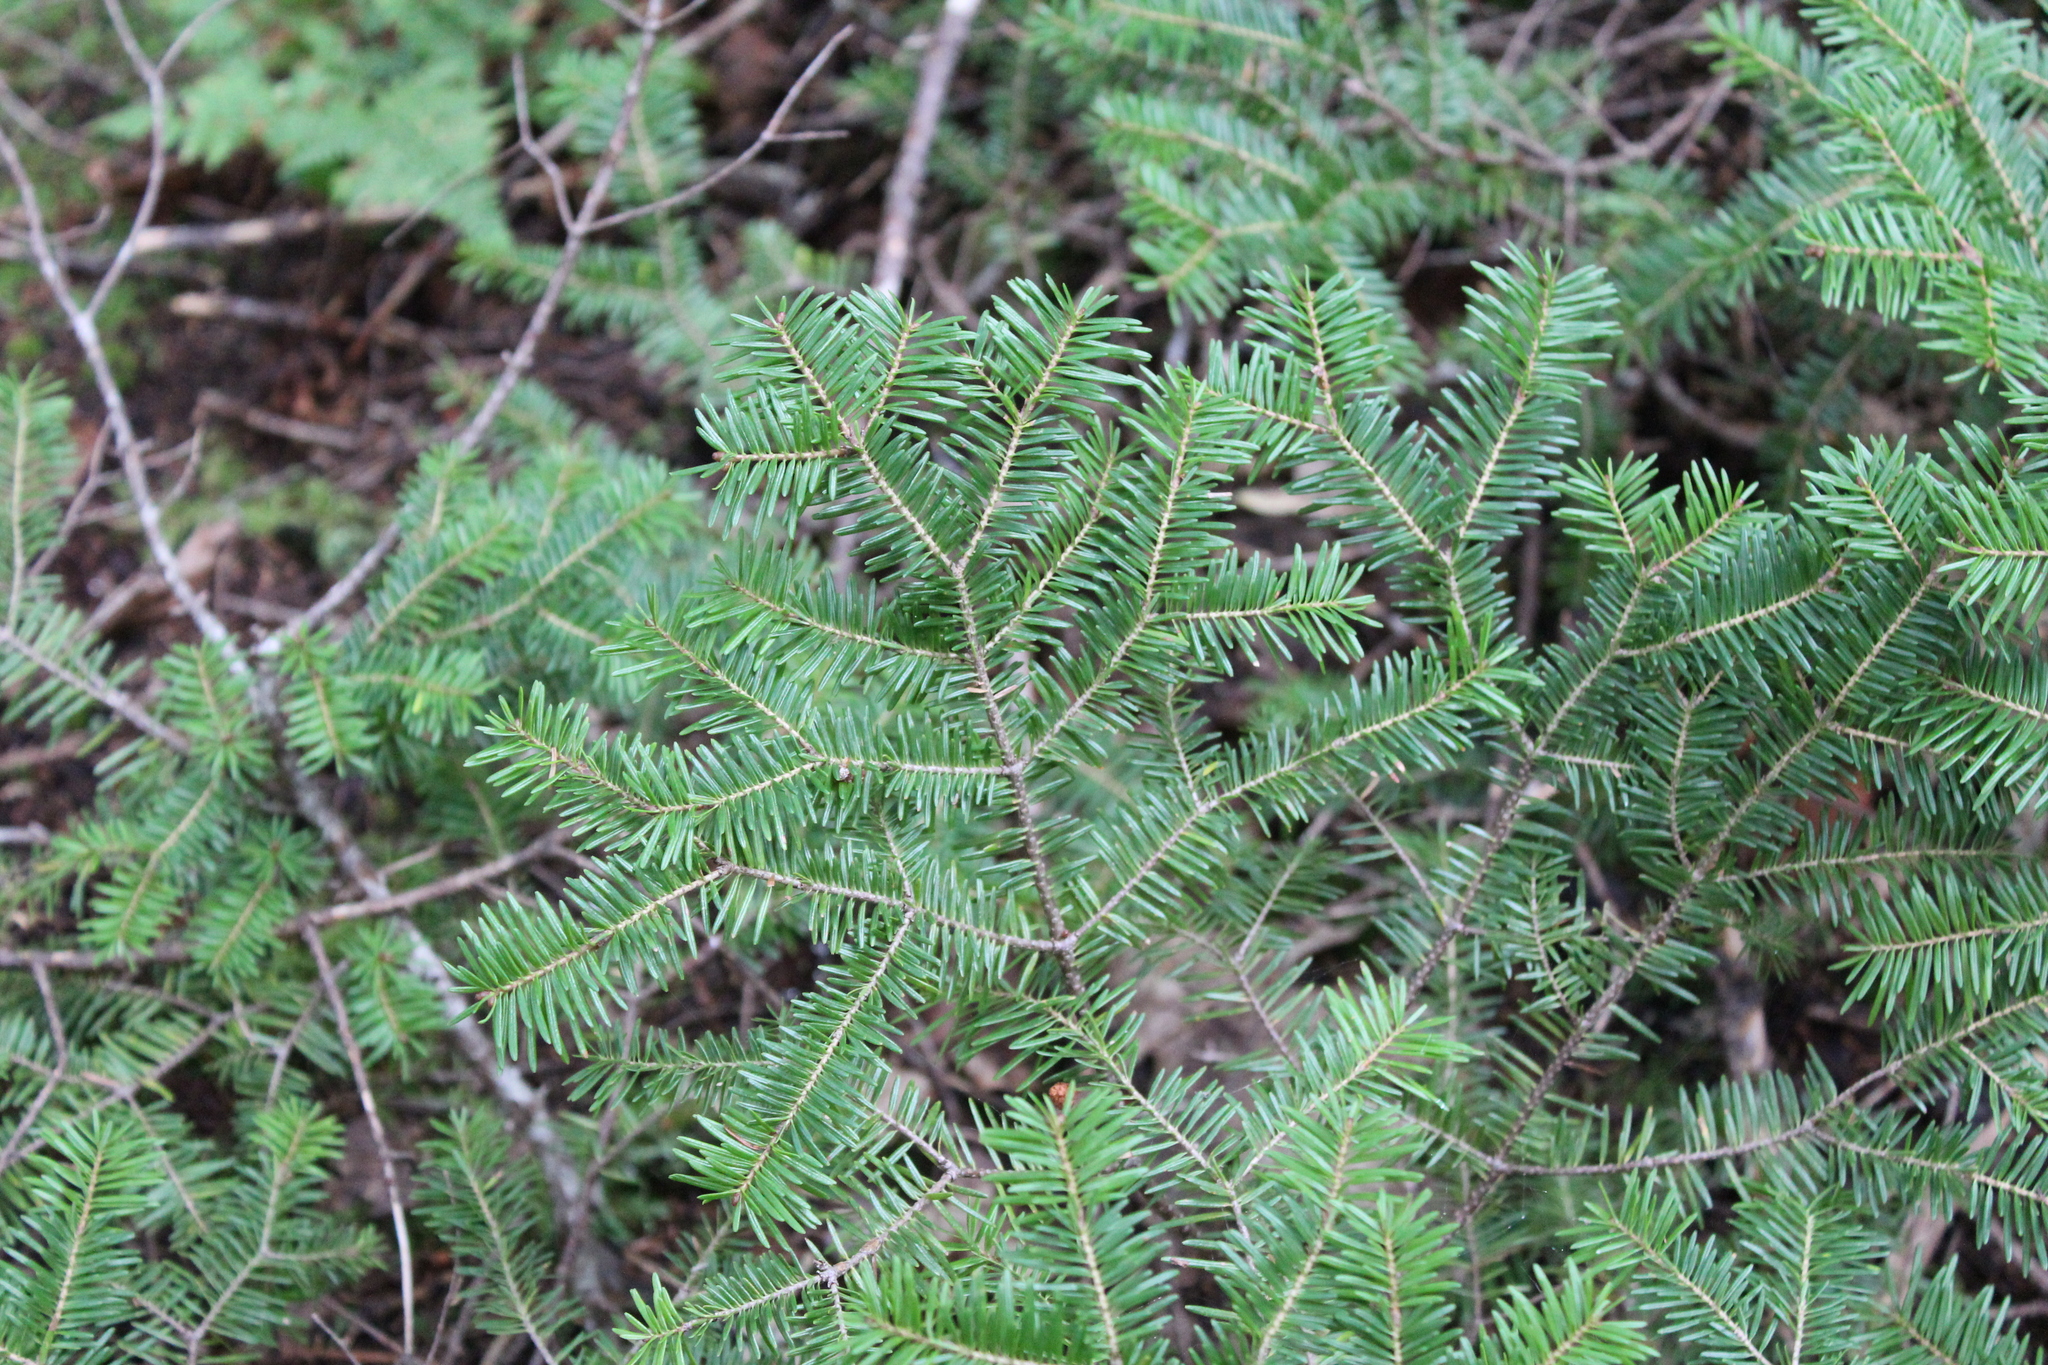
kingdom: Plantae
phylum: Tracheophyta
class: Pinopsida
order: Pinales
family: Pinaceae
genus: Abies
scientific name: Abies balsamea
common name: Balsam fir
